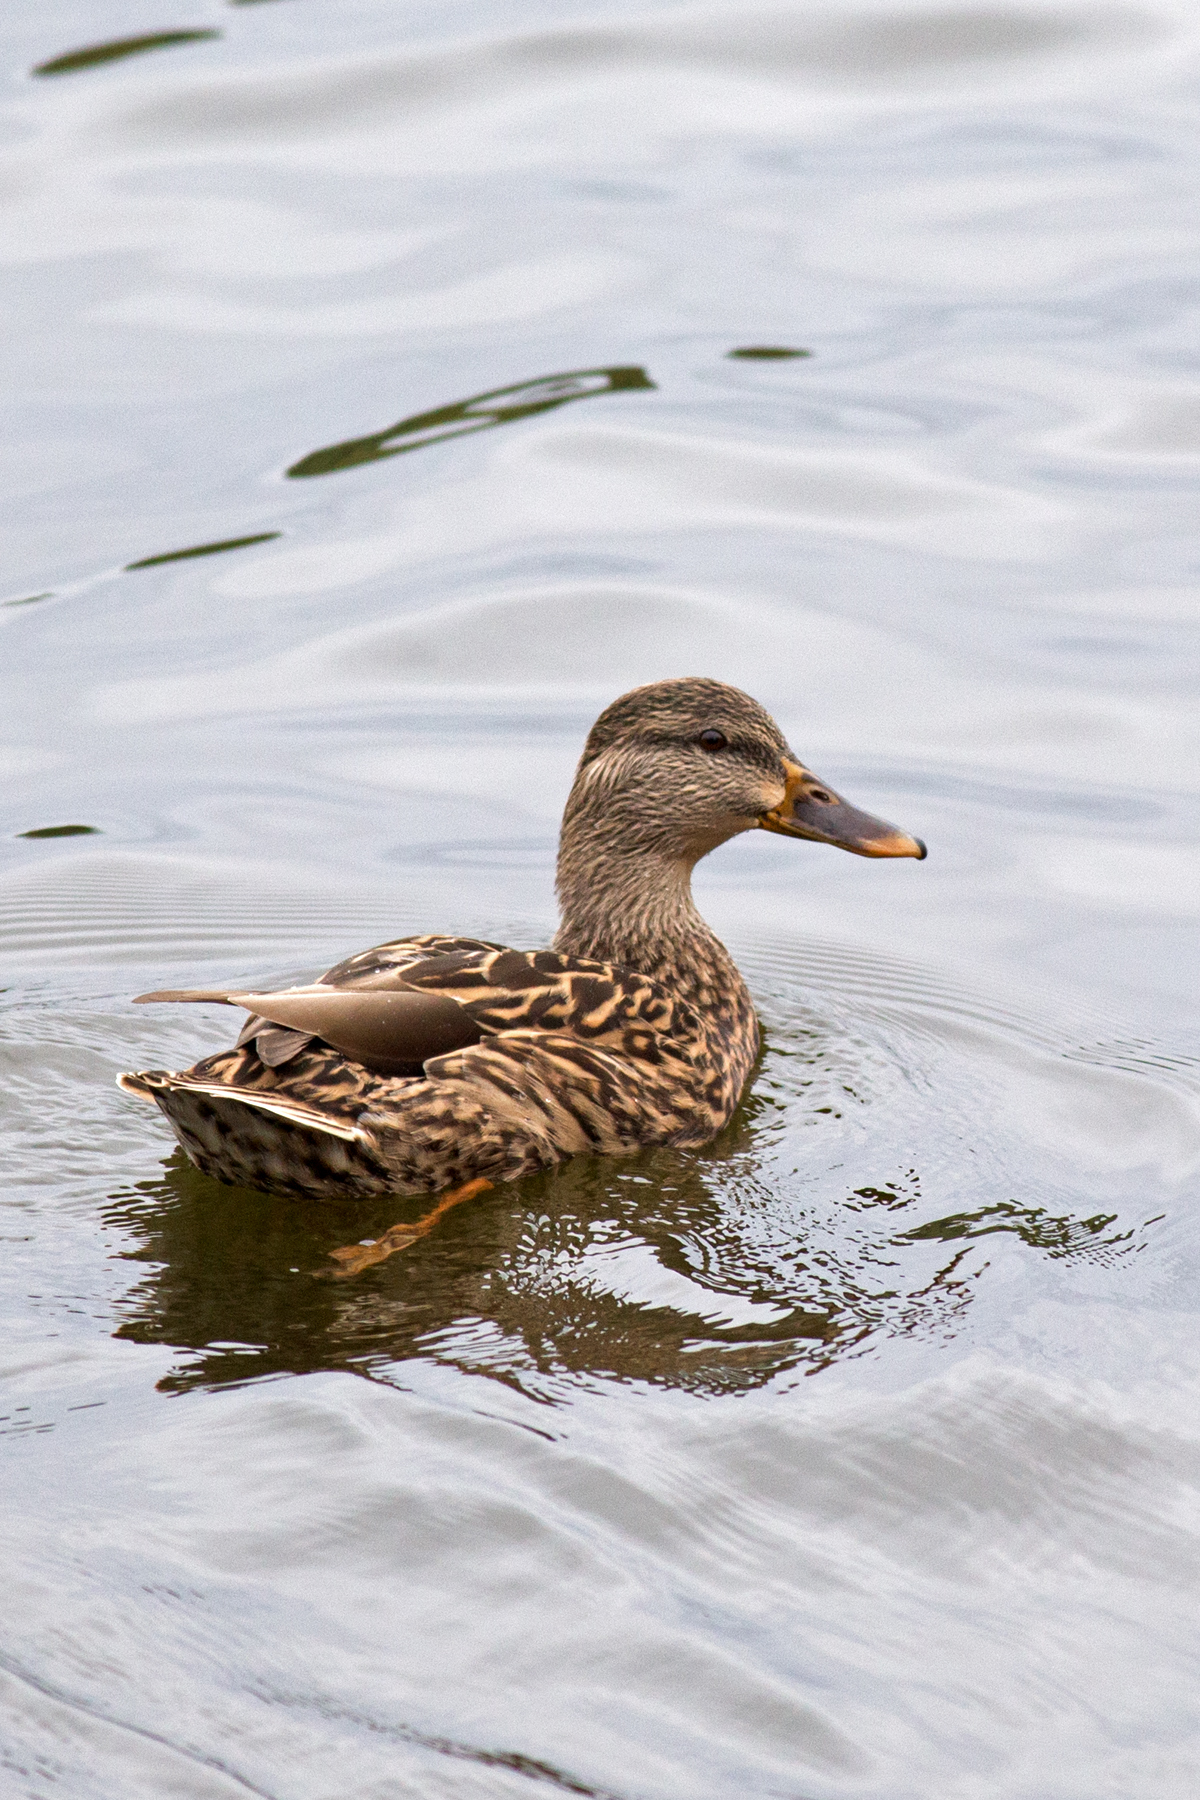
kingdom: Animalia
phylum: Chordata
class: Aves
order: Anseriformes
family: Anatidae
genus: Anas
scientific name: Anas platyrhynchos
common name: Mallard
